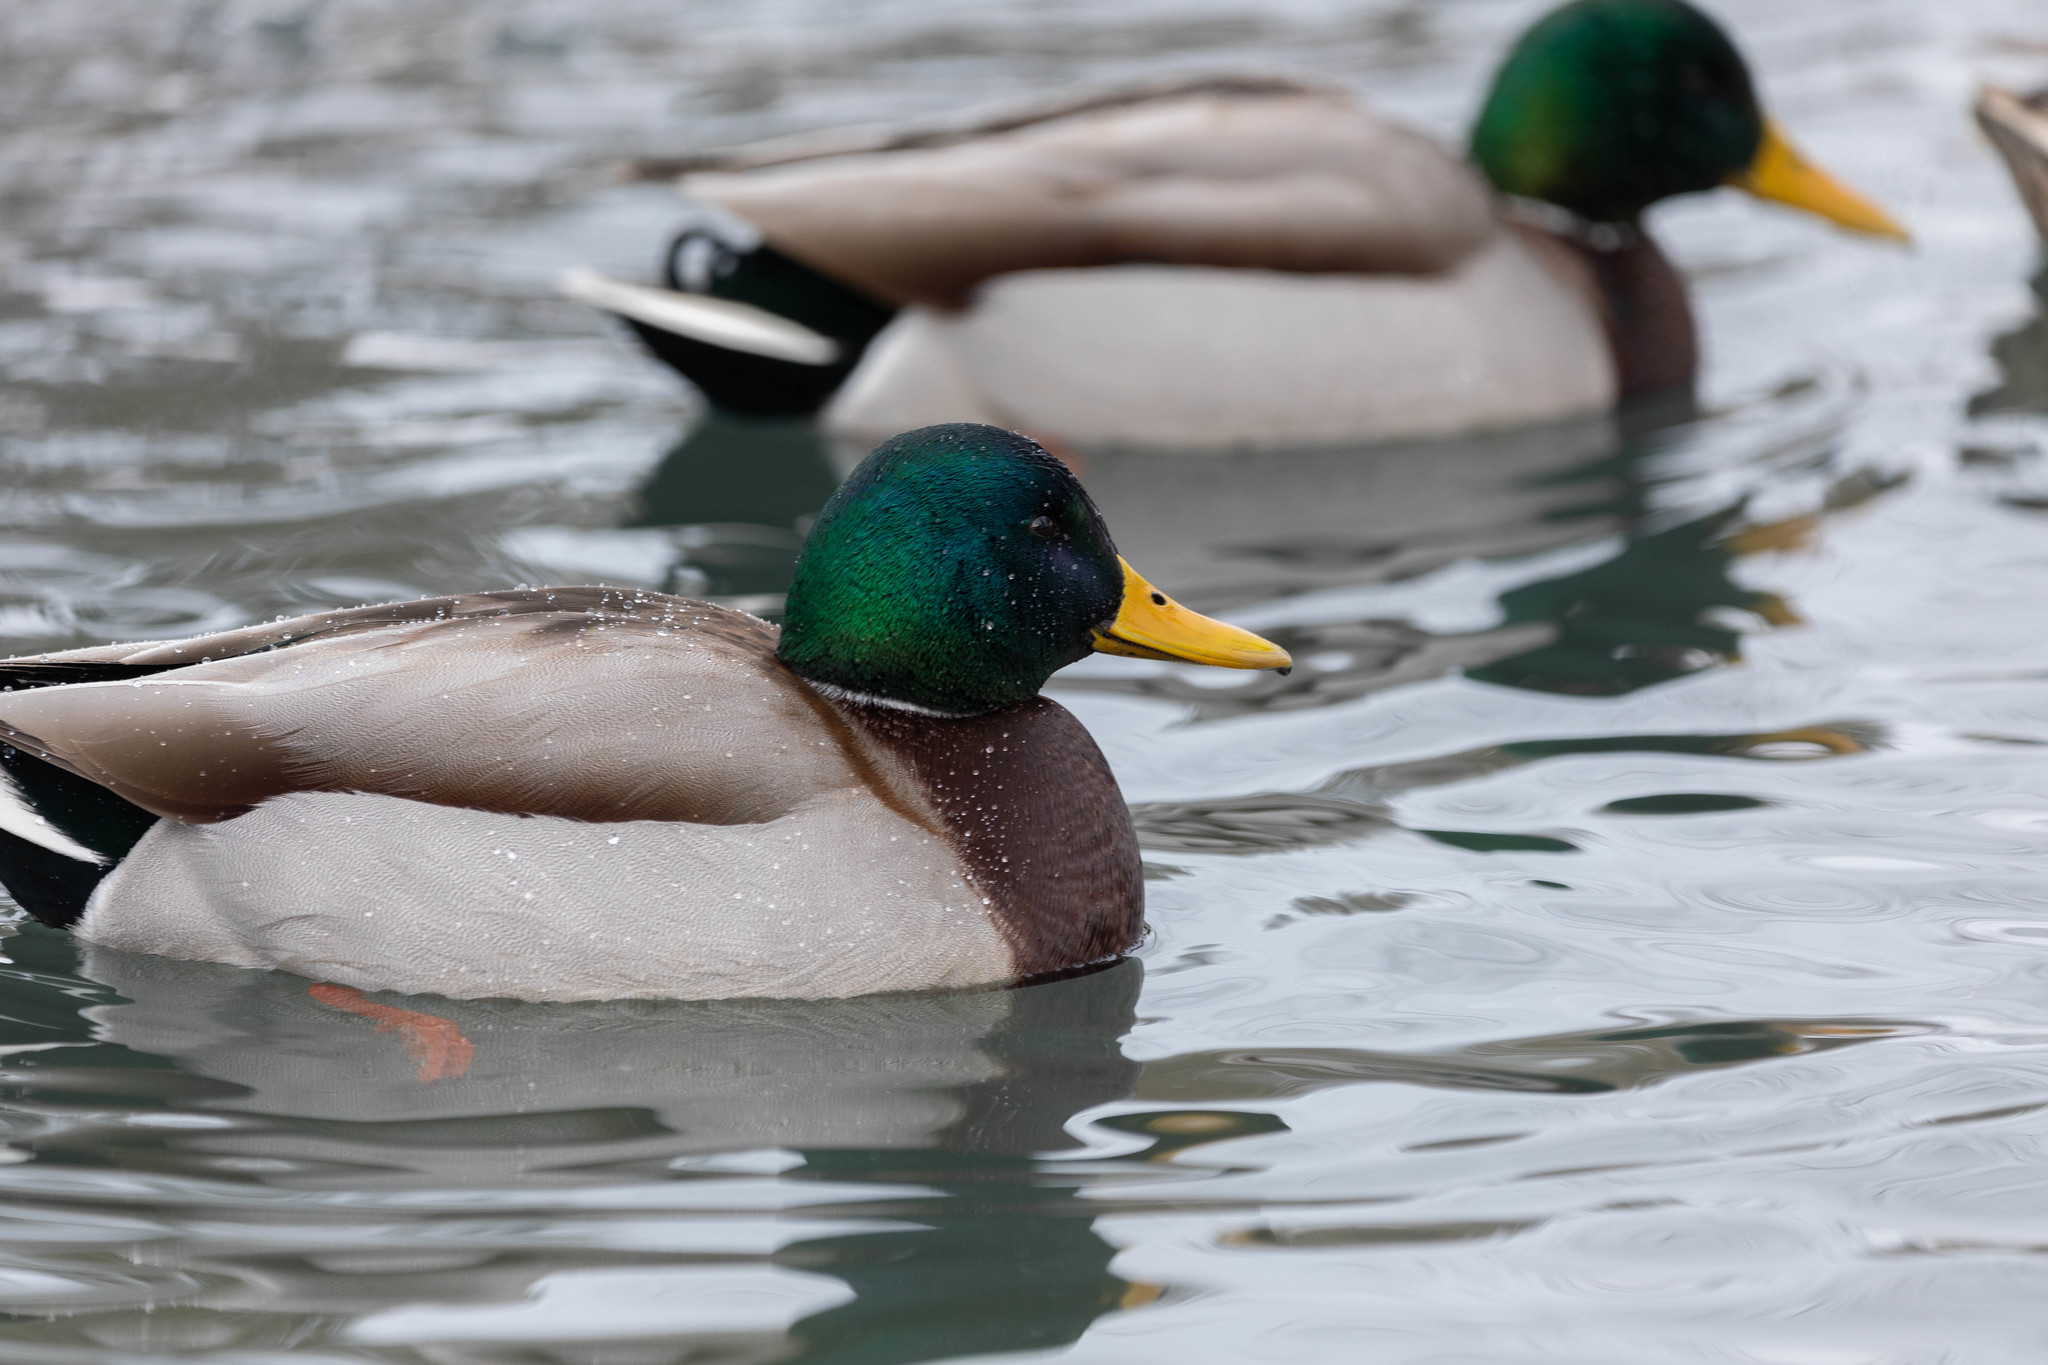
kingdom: Animalia
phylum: Chordata
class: Aves
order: Anseriformes
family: Anatidae
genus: Anas
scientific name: Anas platyrhynchos
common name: Mallard
